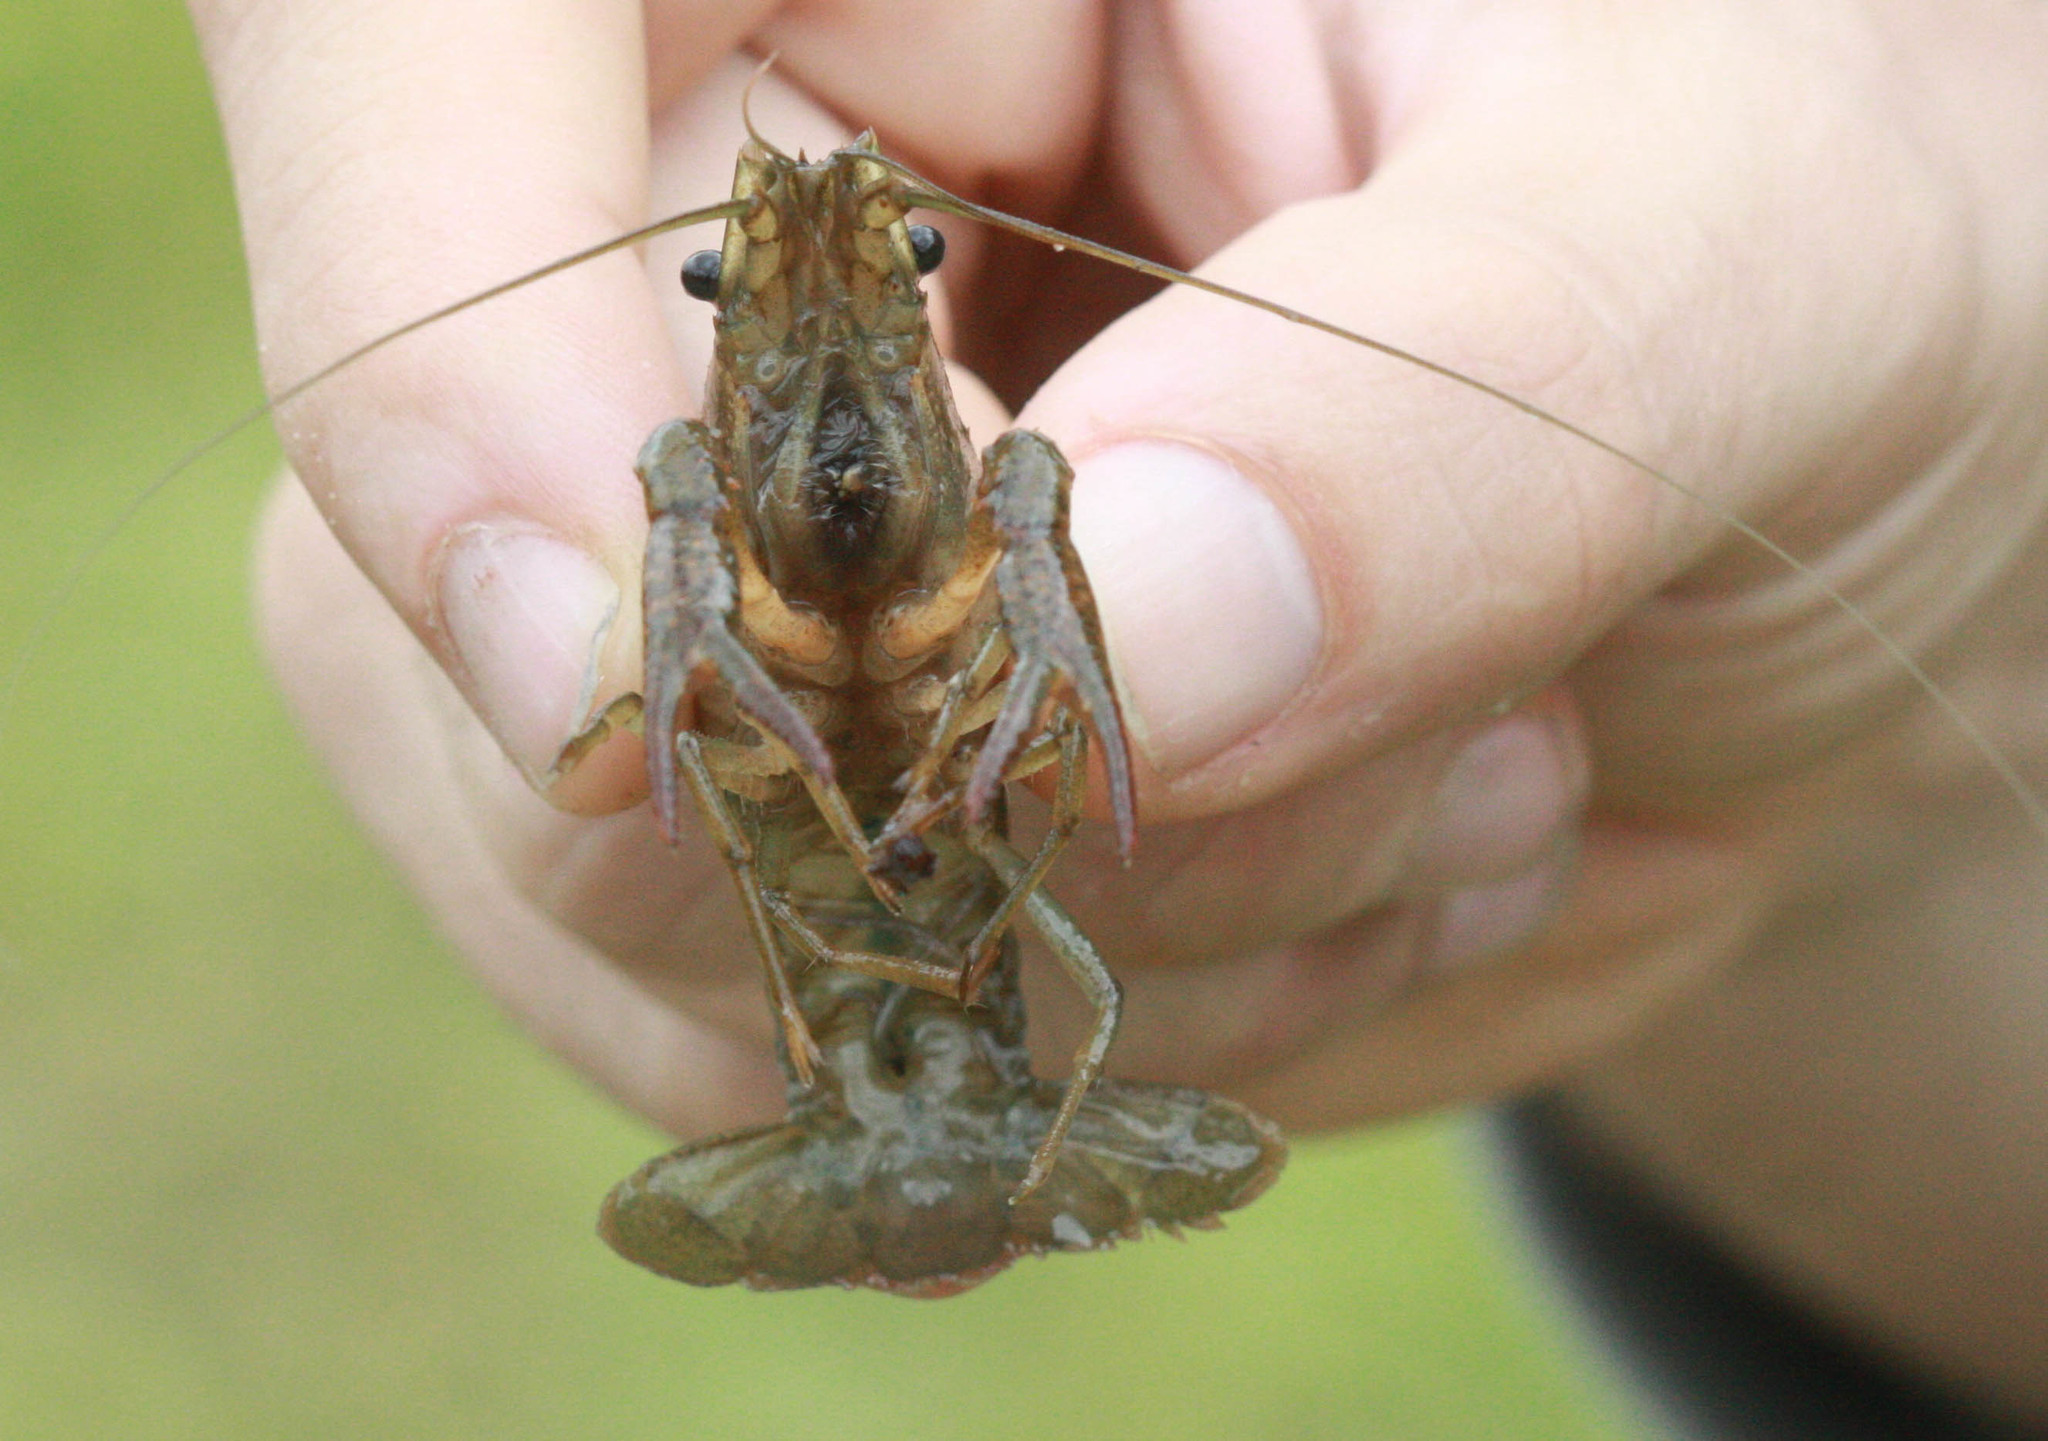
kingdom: Animalia
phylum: Arthropoda
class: Malacostraca
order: Decapoda
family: Cambaridae
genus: Procambarus
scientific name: Procambarus clarkii
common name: Red swamp crayfish
